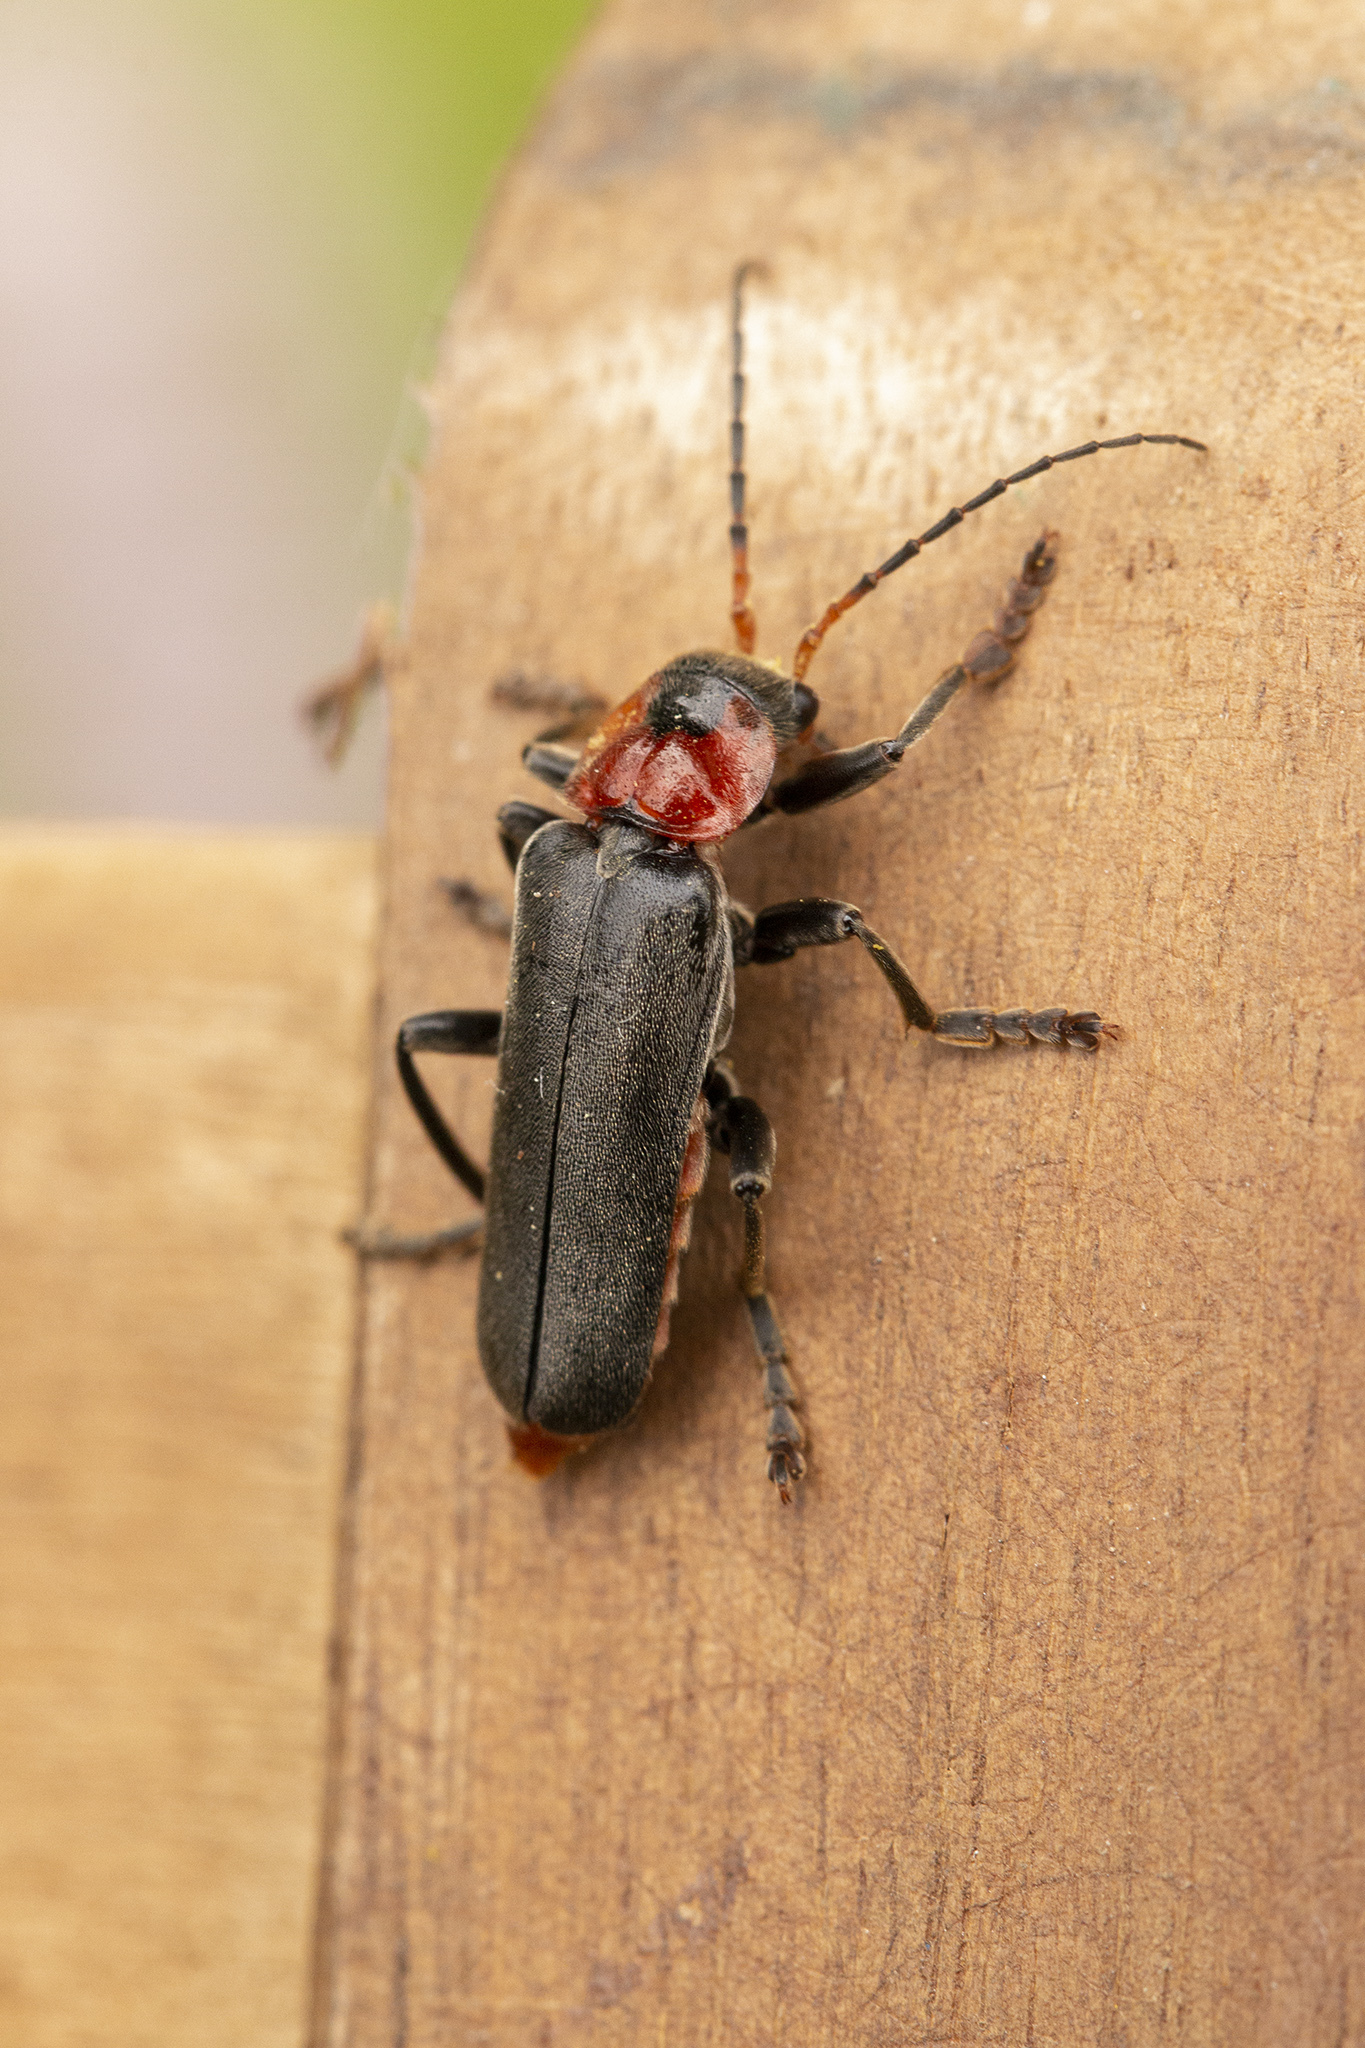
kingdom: Animalia
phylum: Arthropoda
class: Insecta
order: Coleoptera
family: Cantharidae
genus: Cantharis
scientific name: Cantharis fusca
